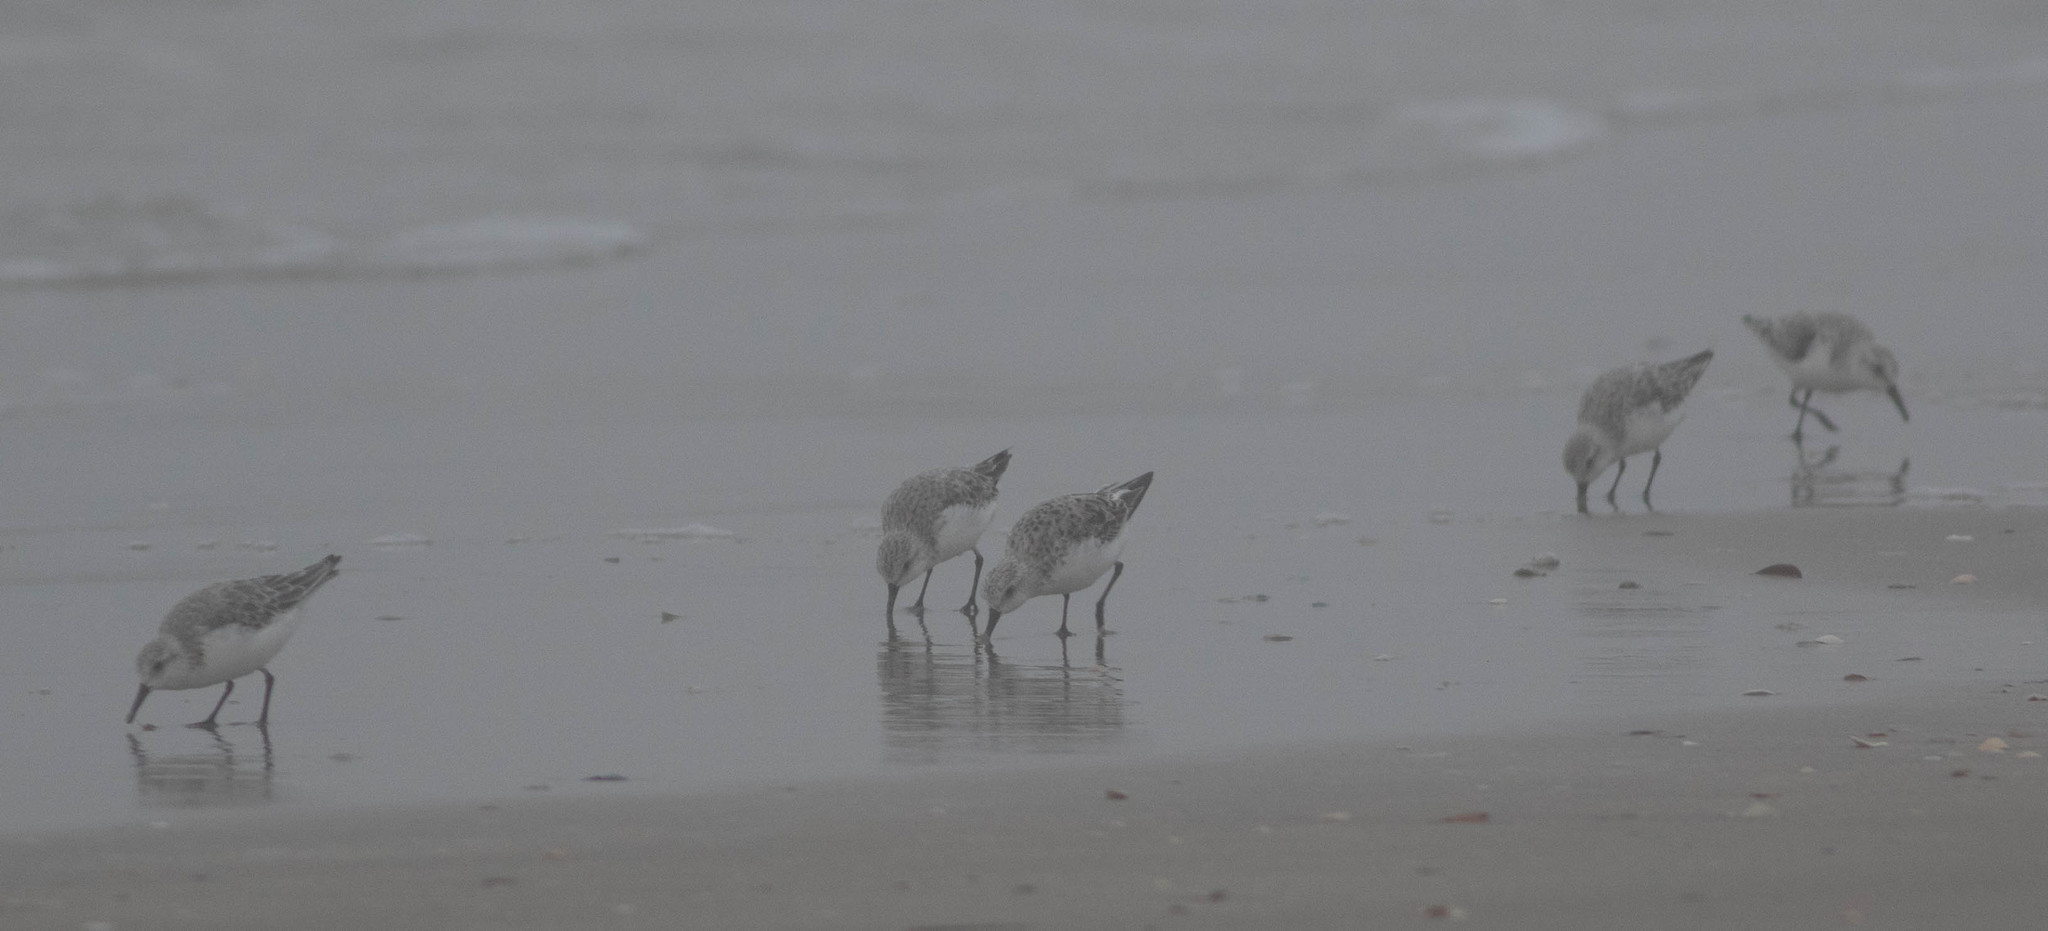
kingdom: Animalia
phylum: Chordata
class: Aves
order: Charadriiformes
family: Scolopacidae
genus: Calidris
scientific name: Calidris alba
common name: Sanderling
